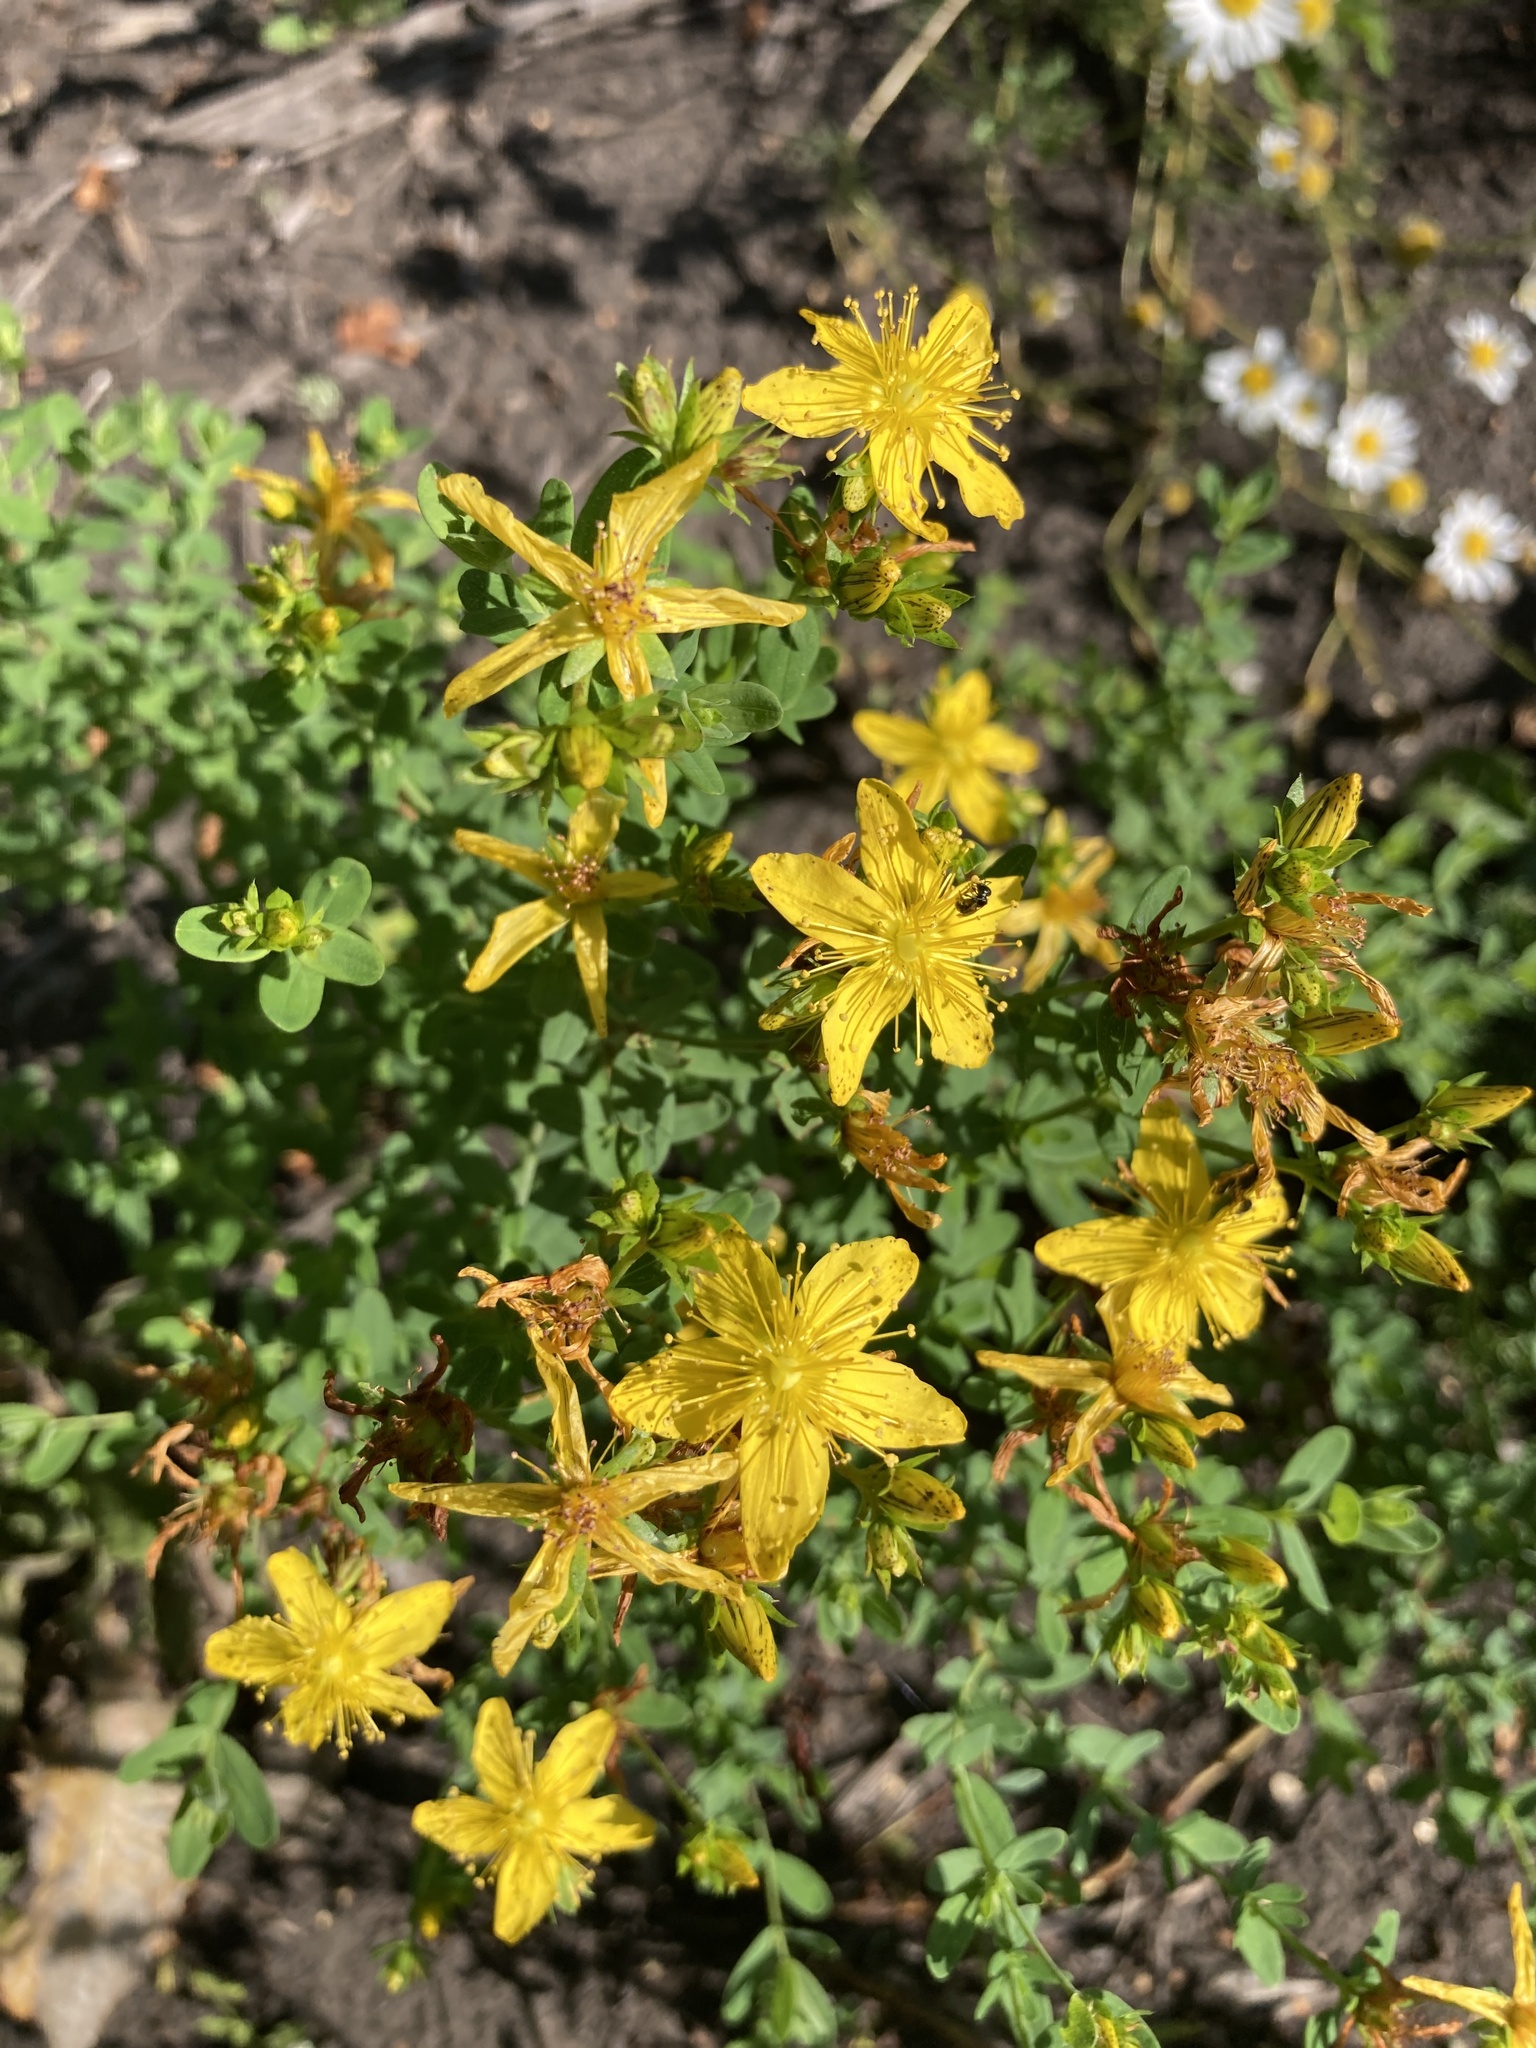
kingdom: Plantae
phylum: Tracheophyta
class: Magnoliopsida
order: Malpighiales
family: Hypericaceae
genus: Hypericum
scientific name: Hypericum perforatum
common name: Common st. johnswort
